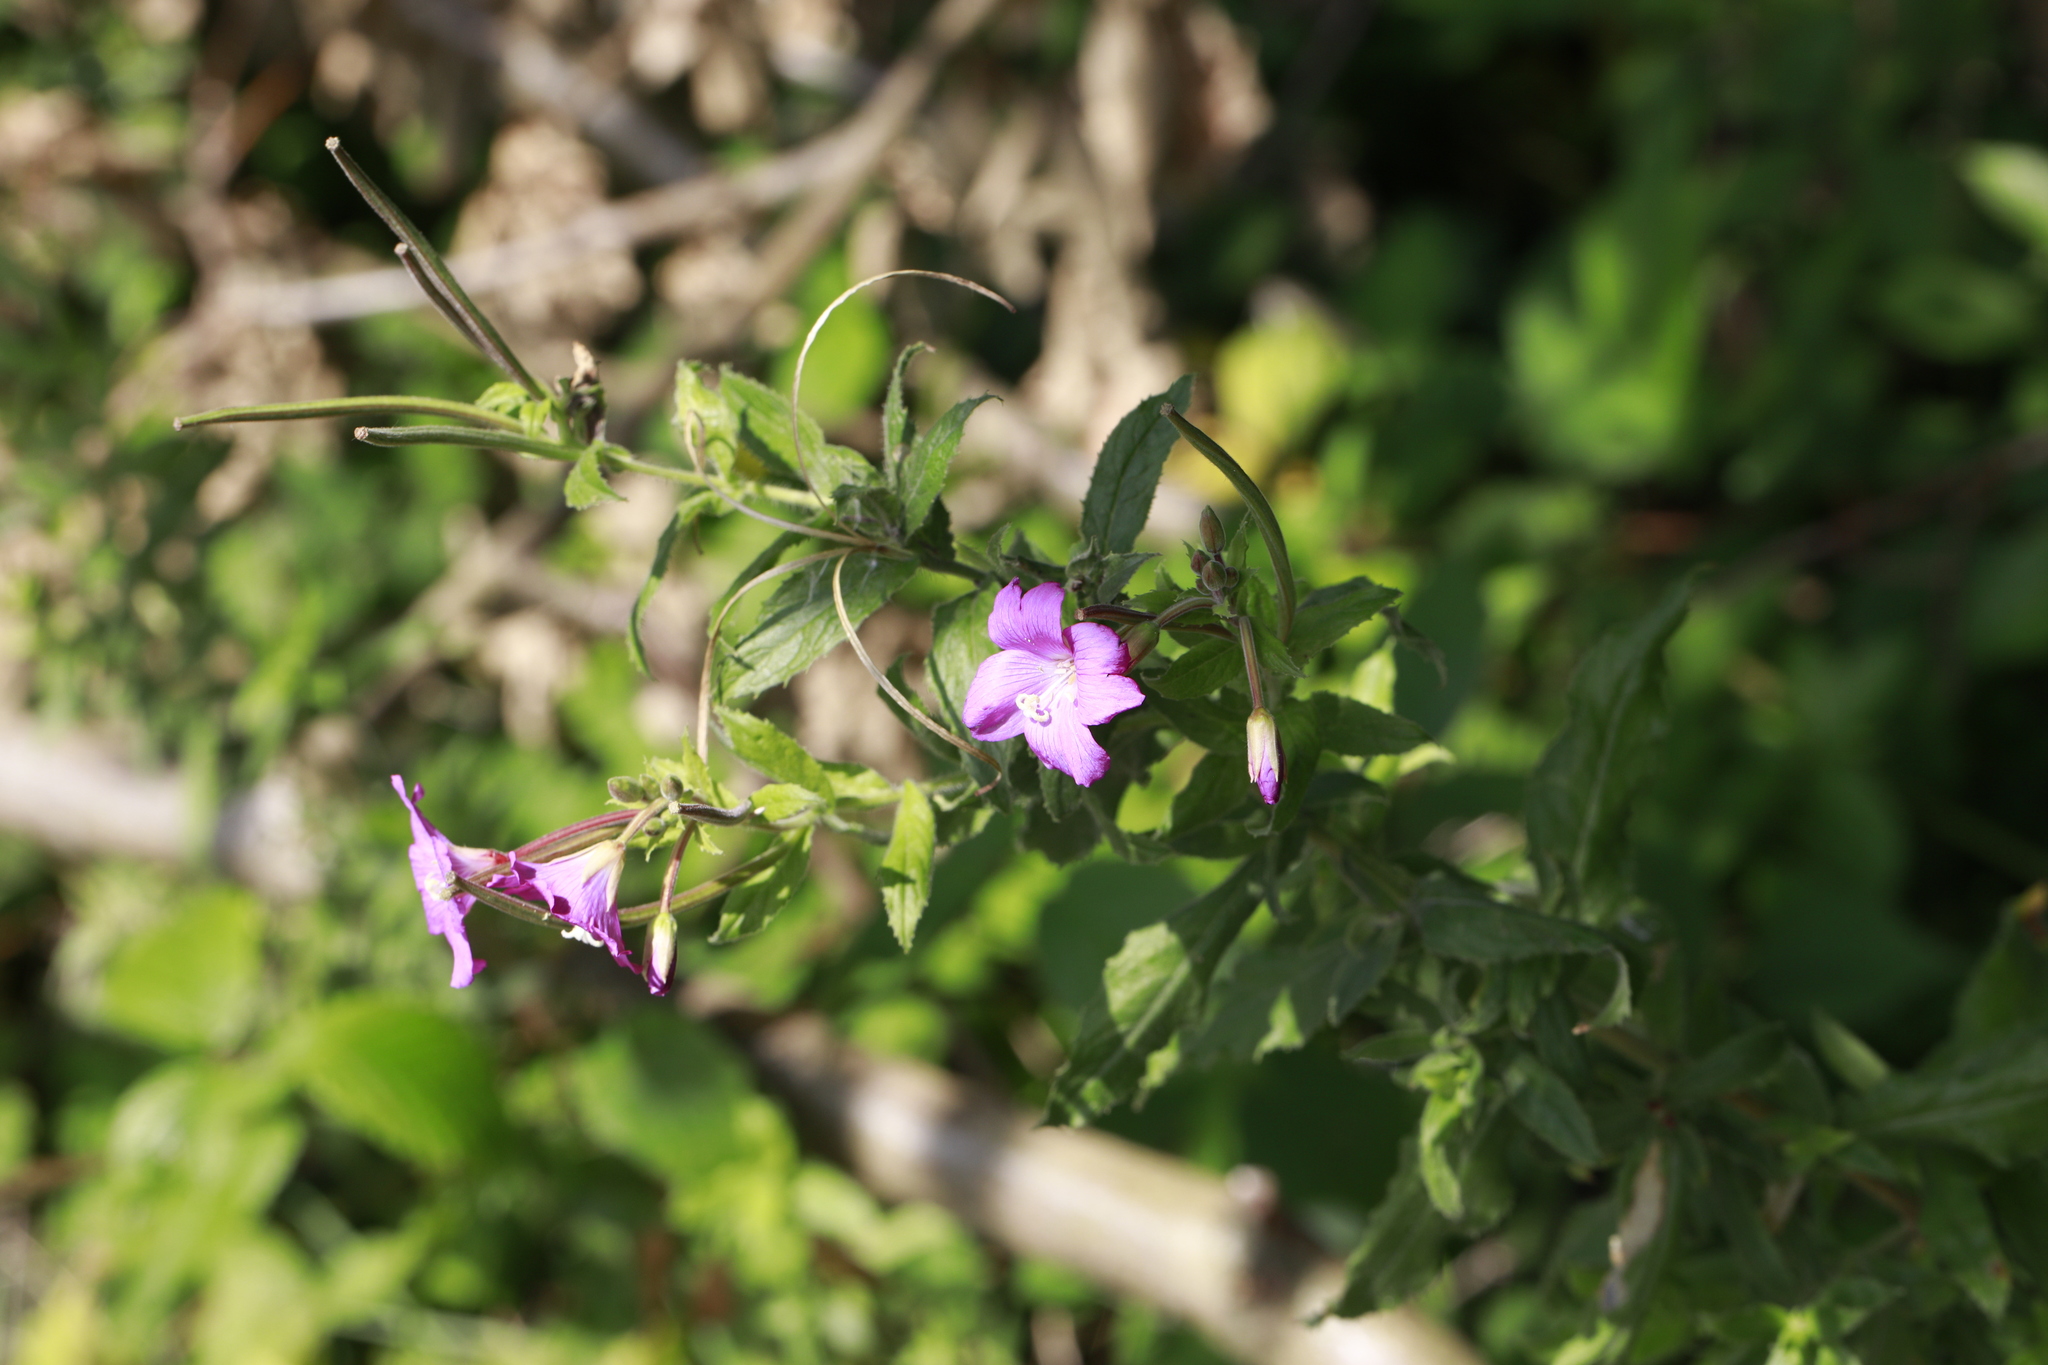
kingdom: Plantae
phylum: Tracheophyta
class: Magnoliopsida
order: Myrtales
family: Onagraceae
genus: Epilobium
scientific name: Epilobium hirsutum
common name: Great willowherb
